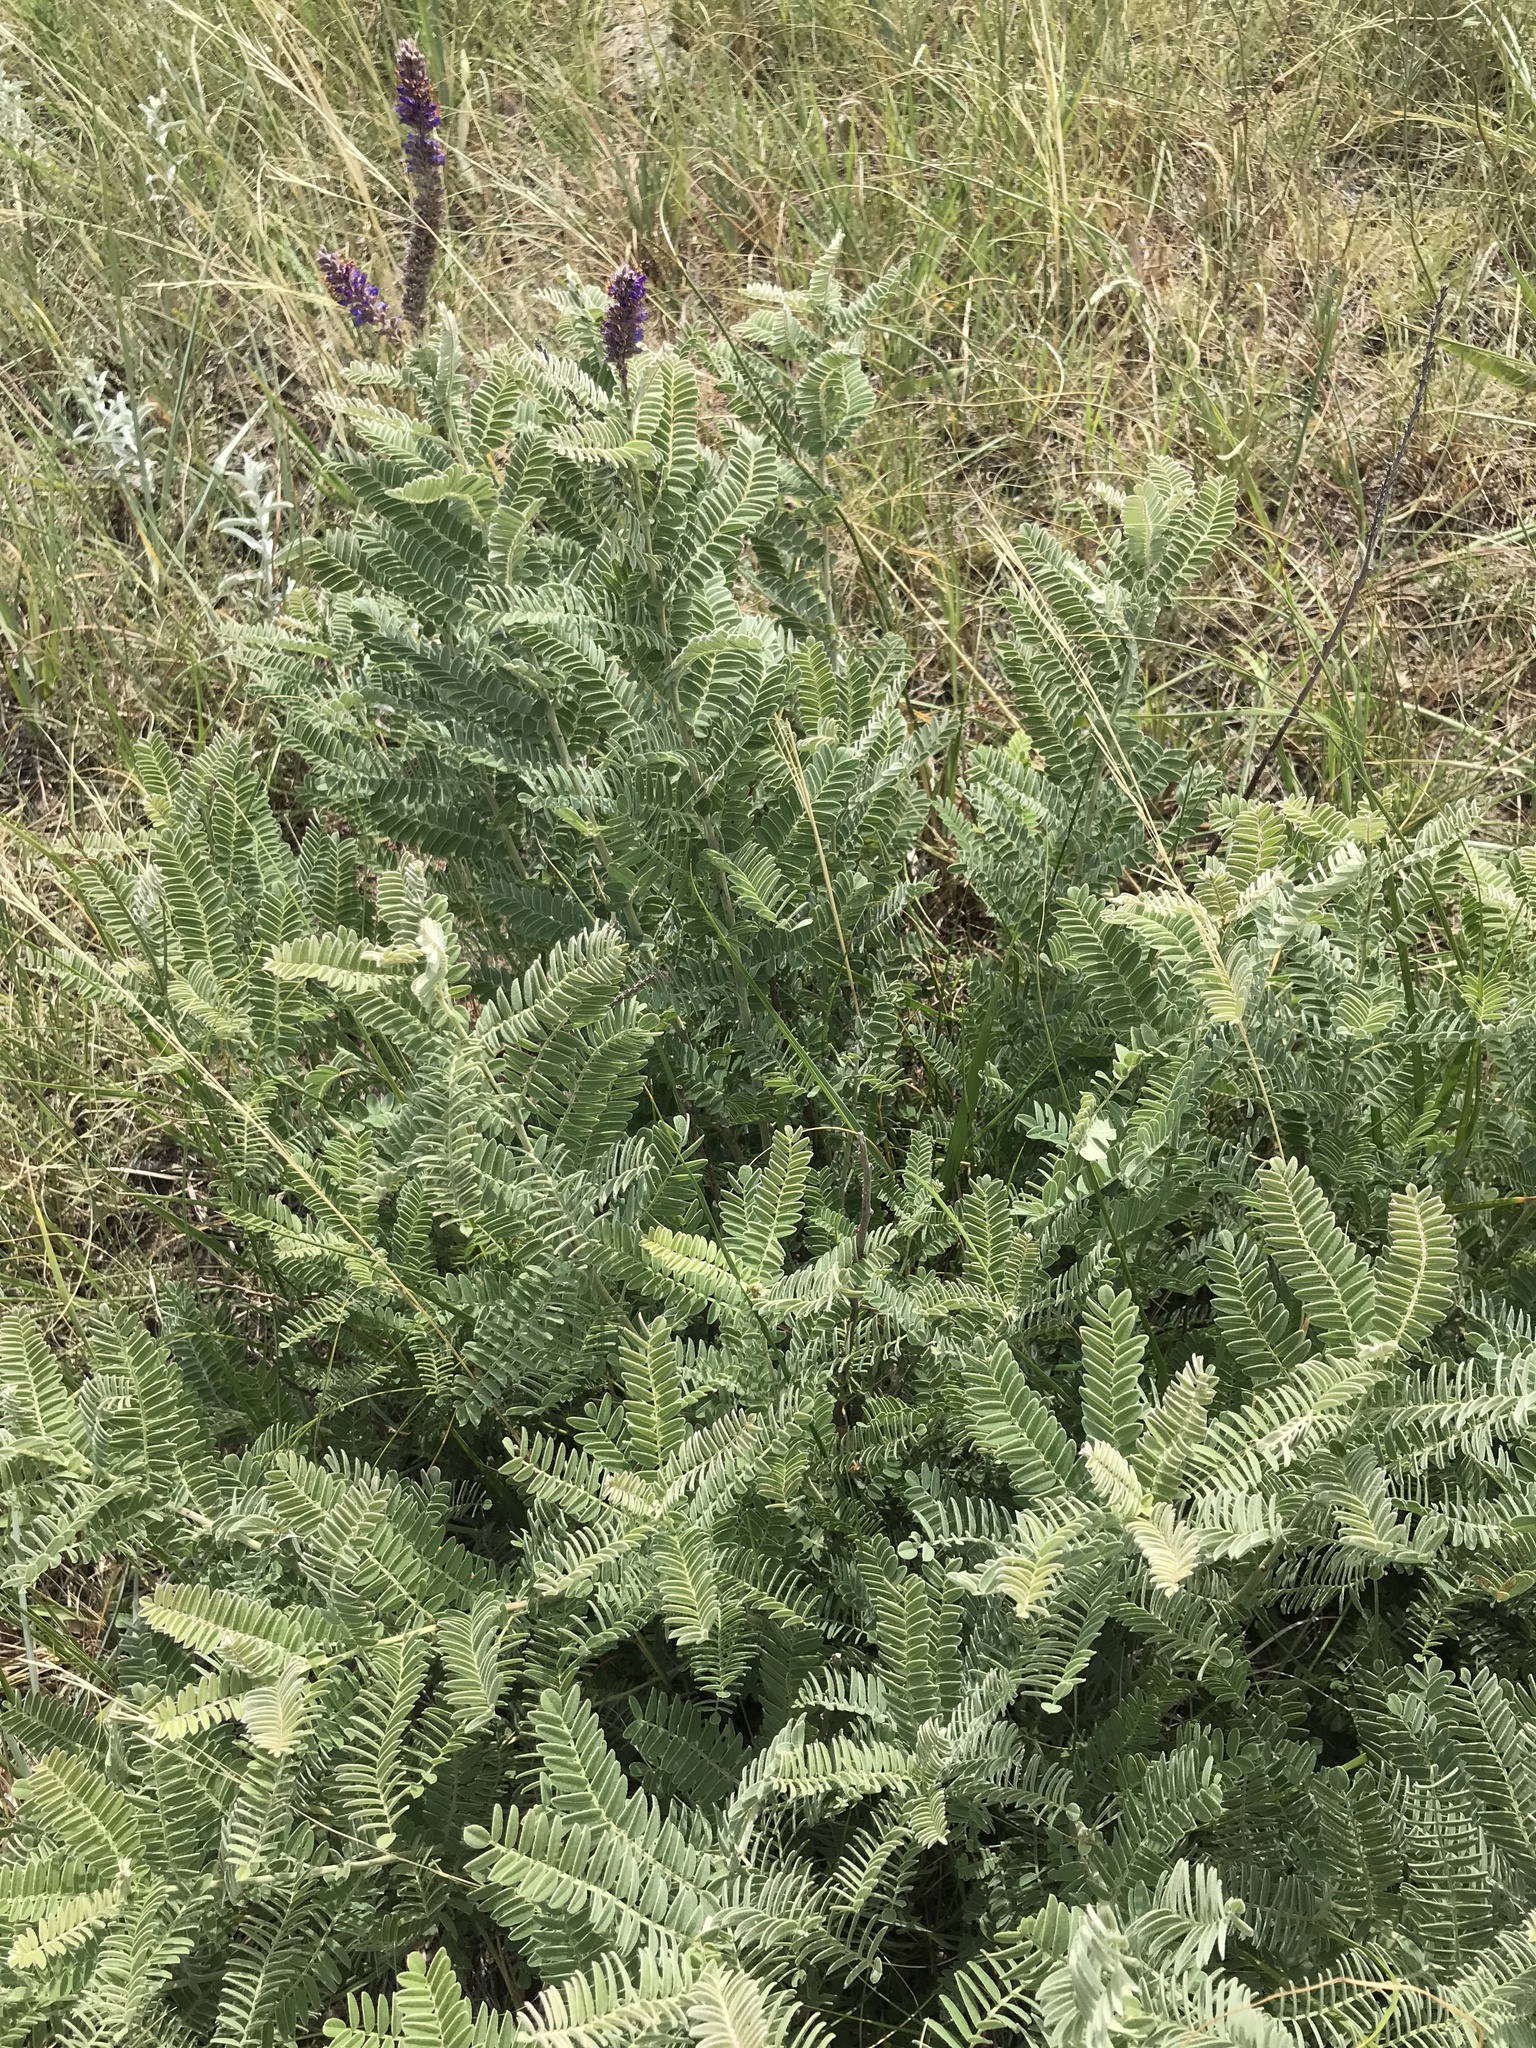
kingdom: Plantae
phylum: Tracheophyta
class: Magnoliopsida
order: Fabales
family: Fabaceae
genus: Amorpha
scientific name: Amorpha canescens
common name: Leadplant
